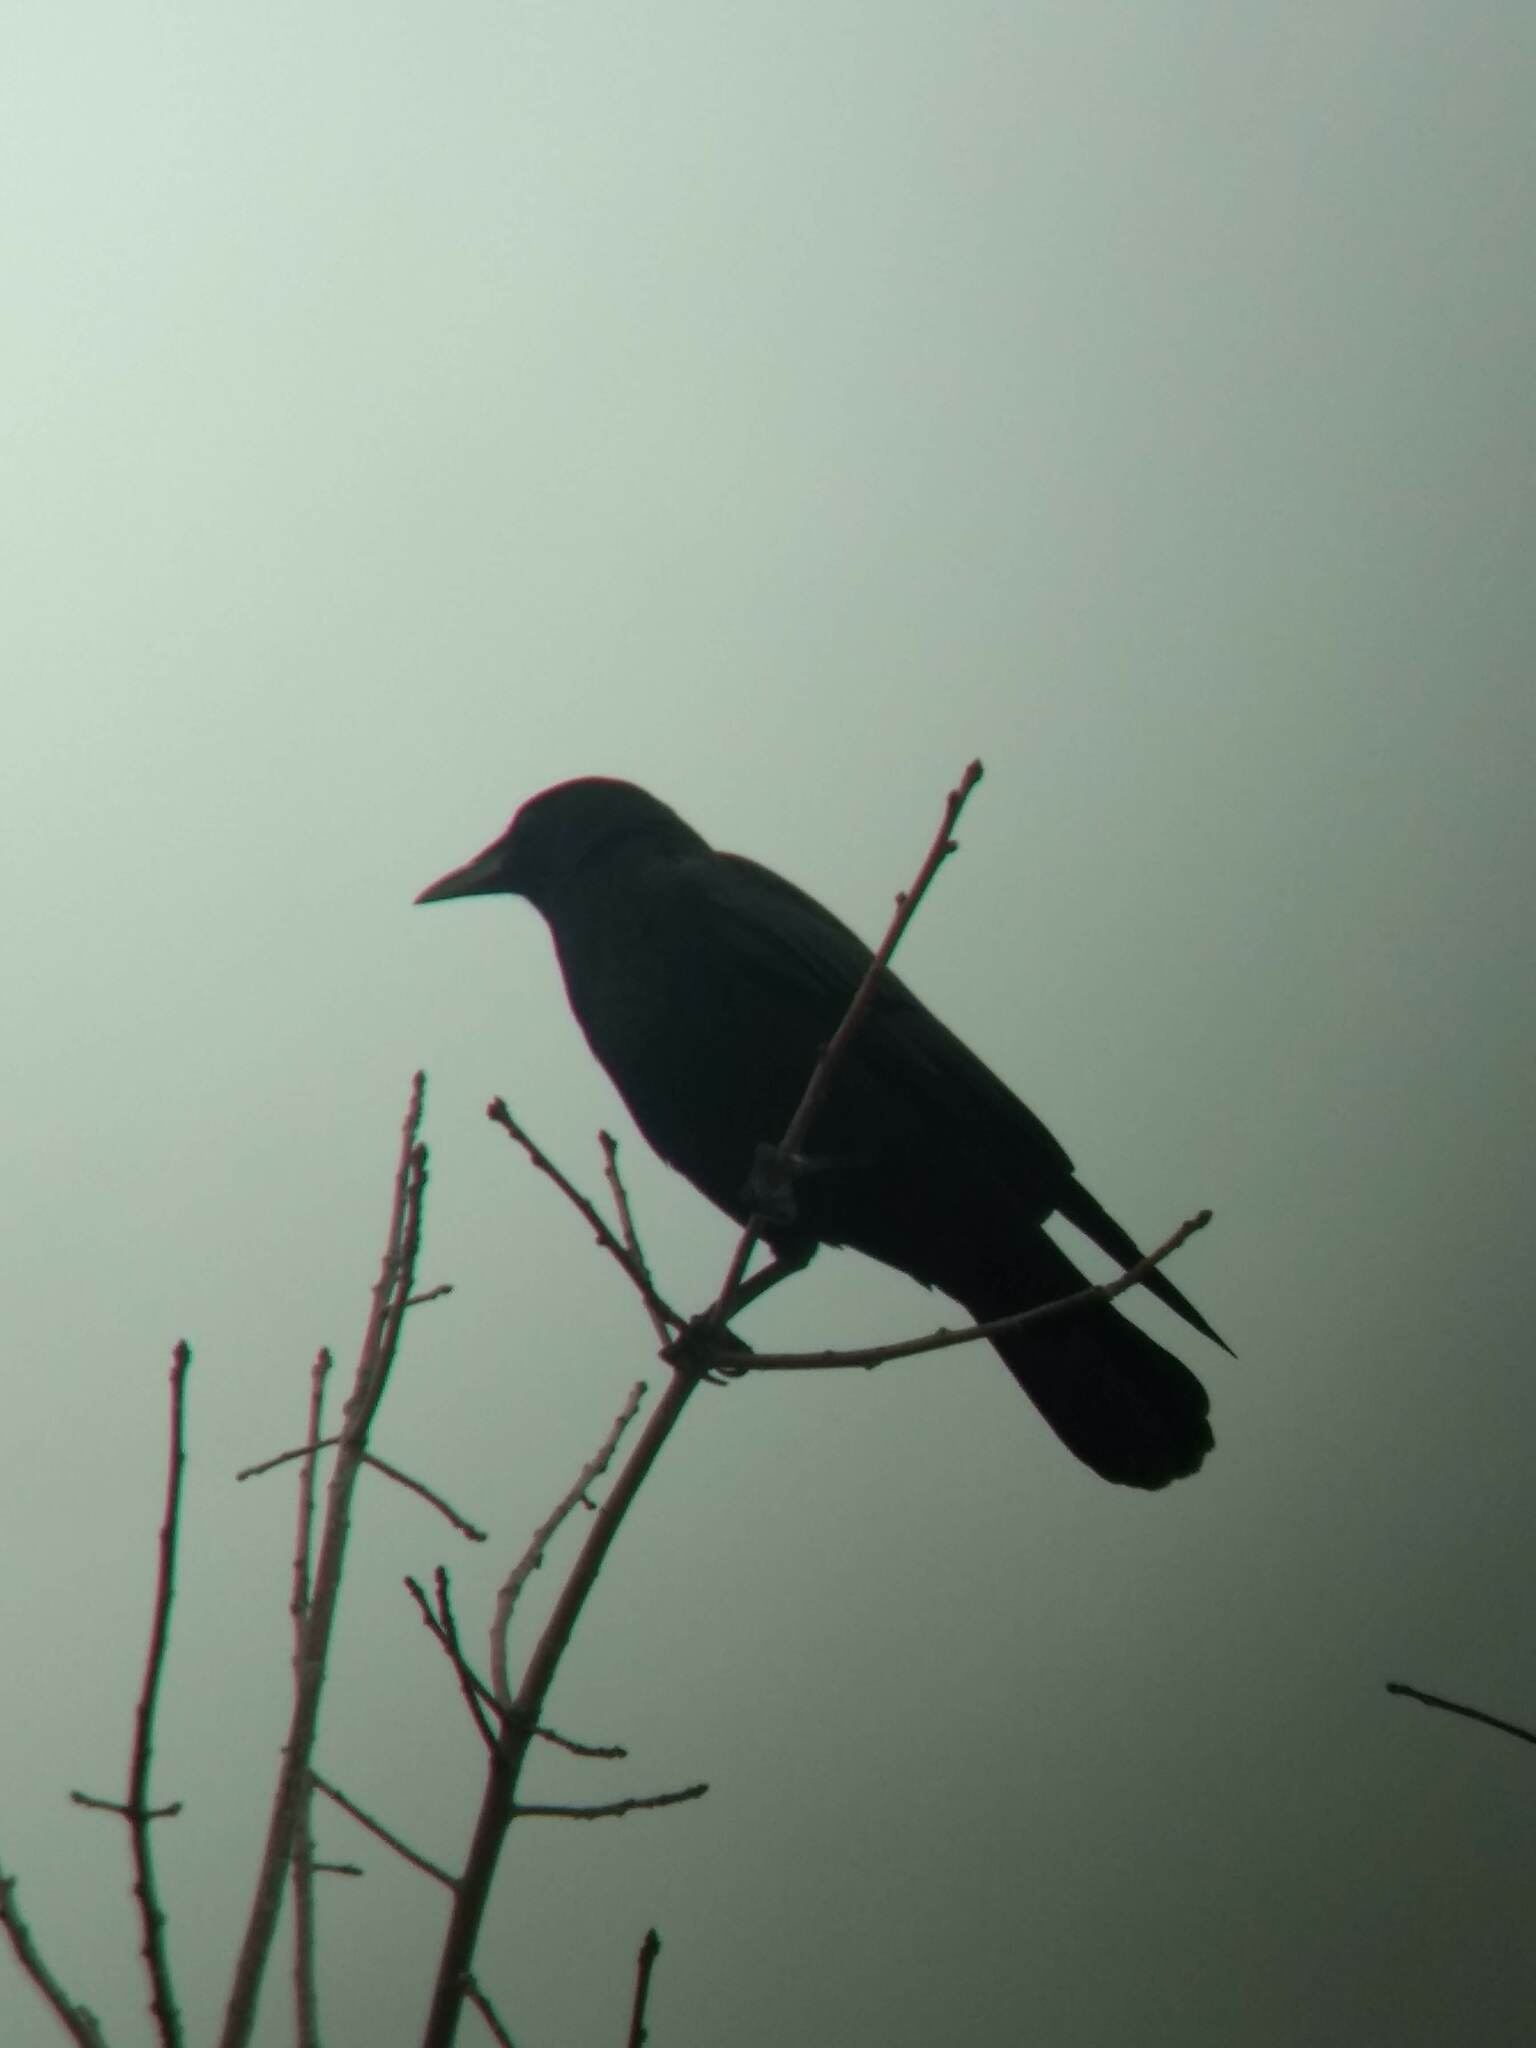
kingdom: Animalia
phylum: Chordata
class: Aves
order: Passeriformes
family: Corvidae
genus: Corvus
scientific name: Corvus brachyrhynchos
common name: American crow
